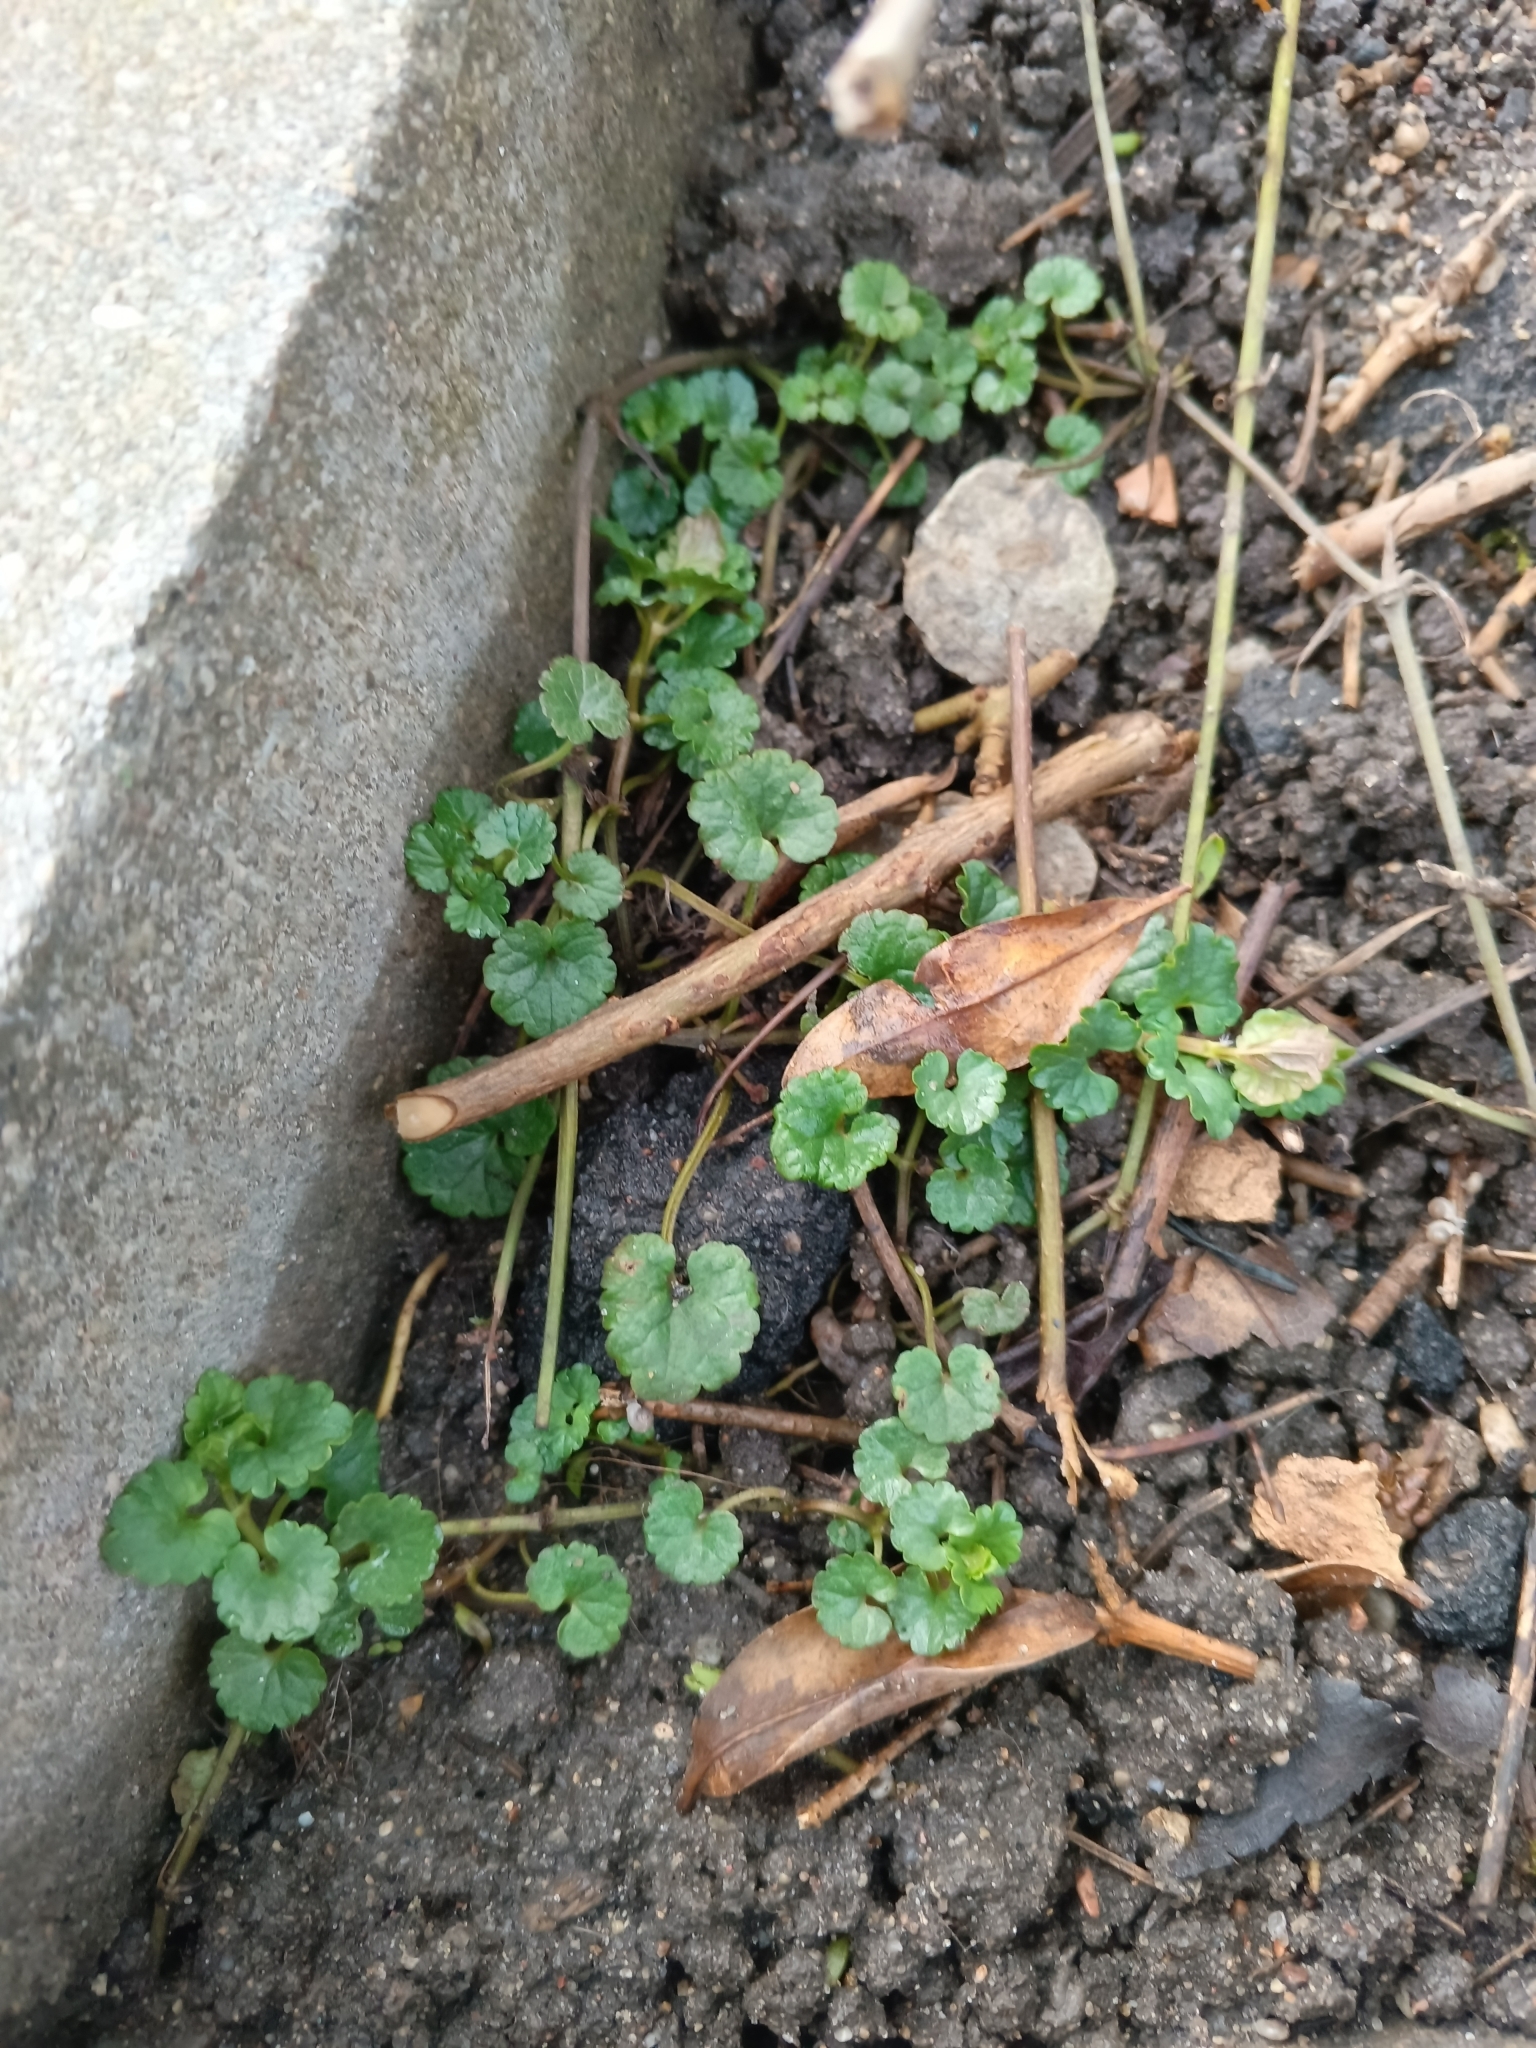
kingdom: Plantae
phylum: Tracheophyta
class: Magnoliopsida
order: Lamiales
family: Lamiaceae
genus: Glechoma
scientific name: Glechoma hederacea
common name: Ground ivy
